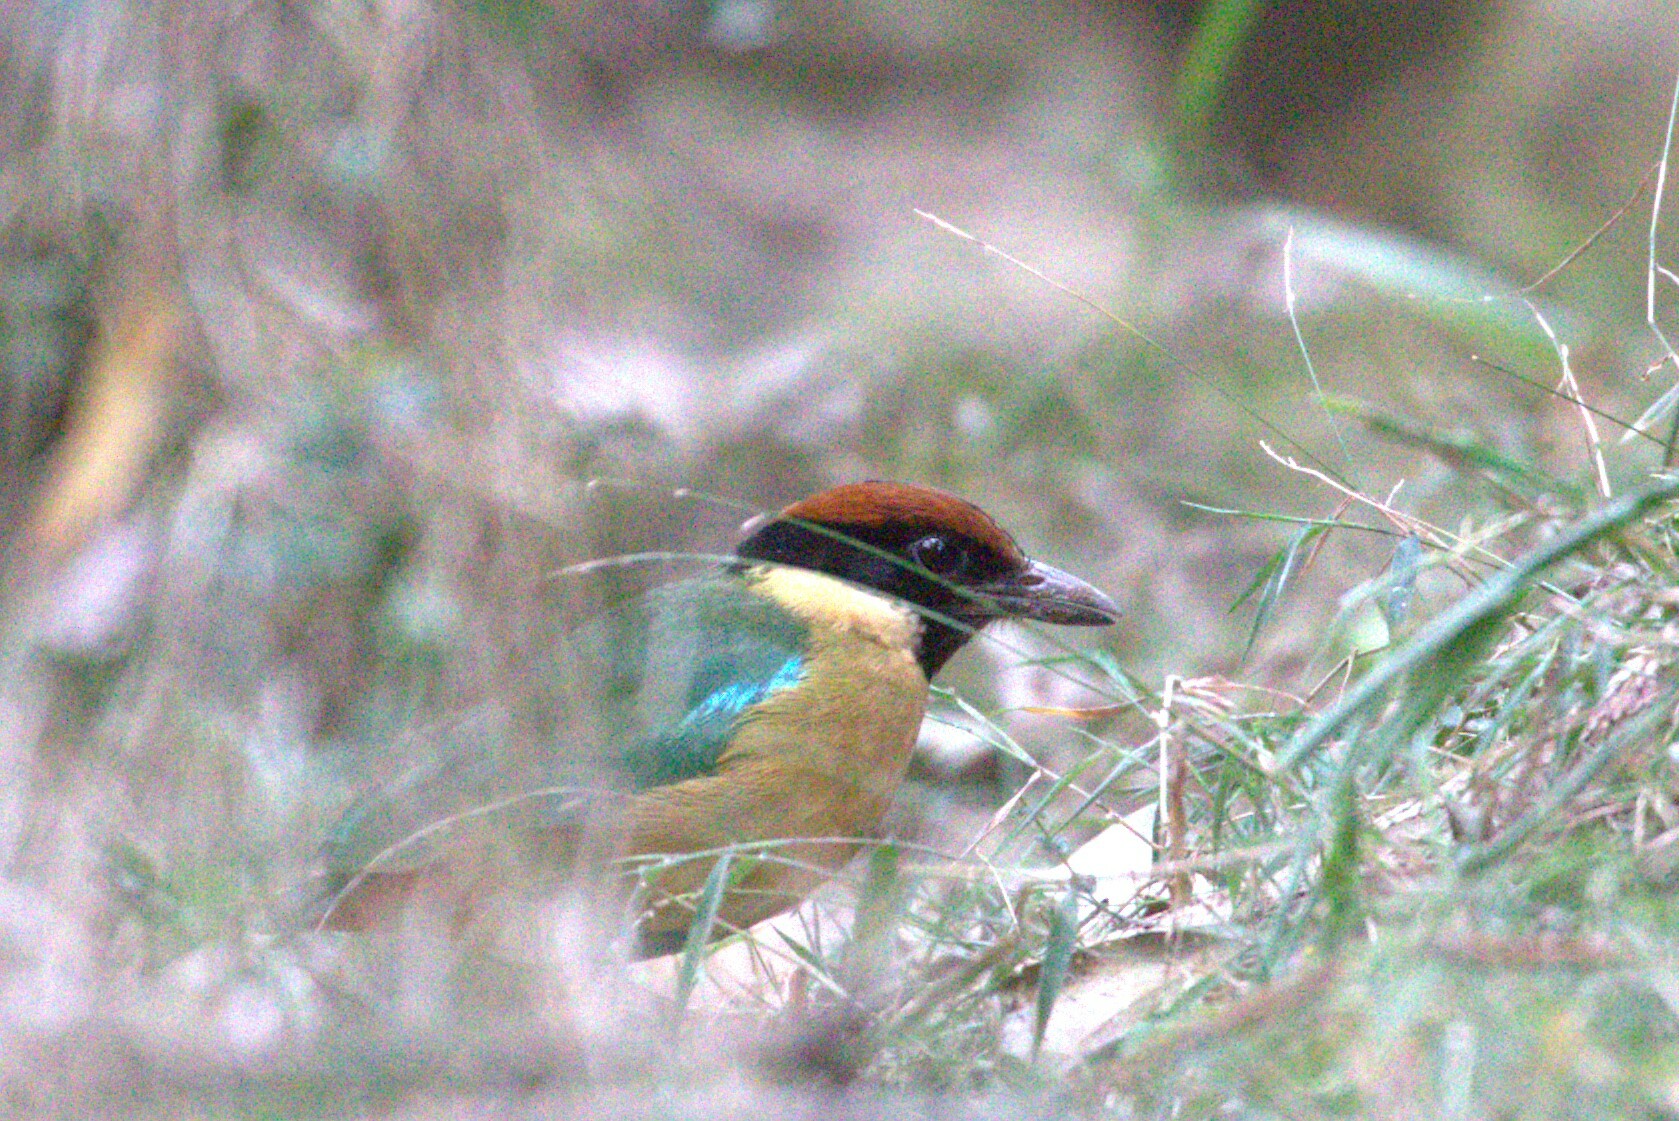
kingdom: Animalia
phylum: Chordata
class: Aves
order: Passeriformes
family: Pittidae
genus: Pitta
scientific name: Pitta versicolor
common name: Noisy pitta
